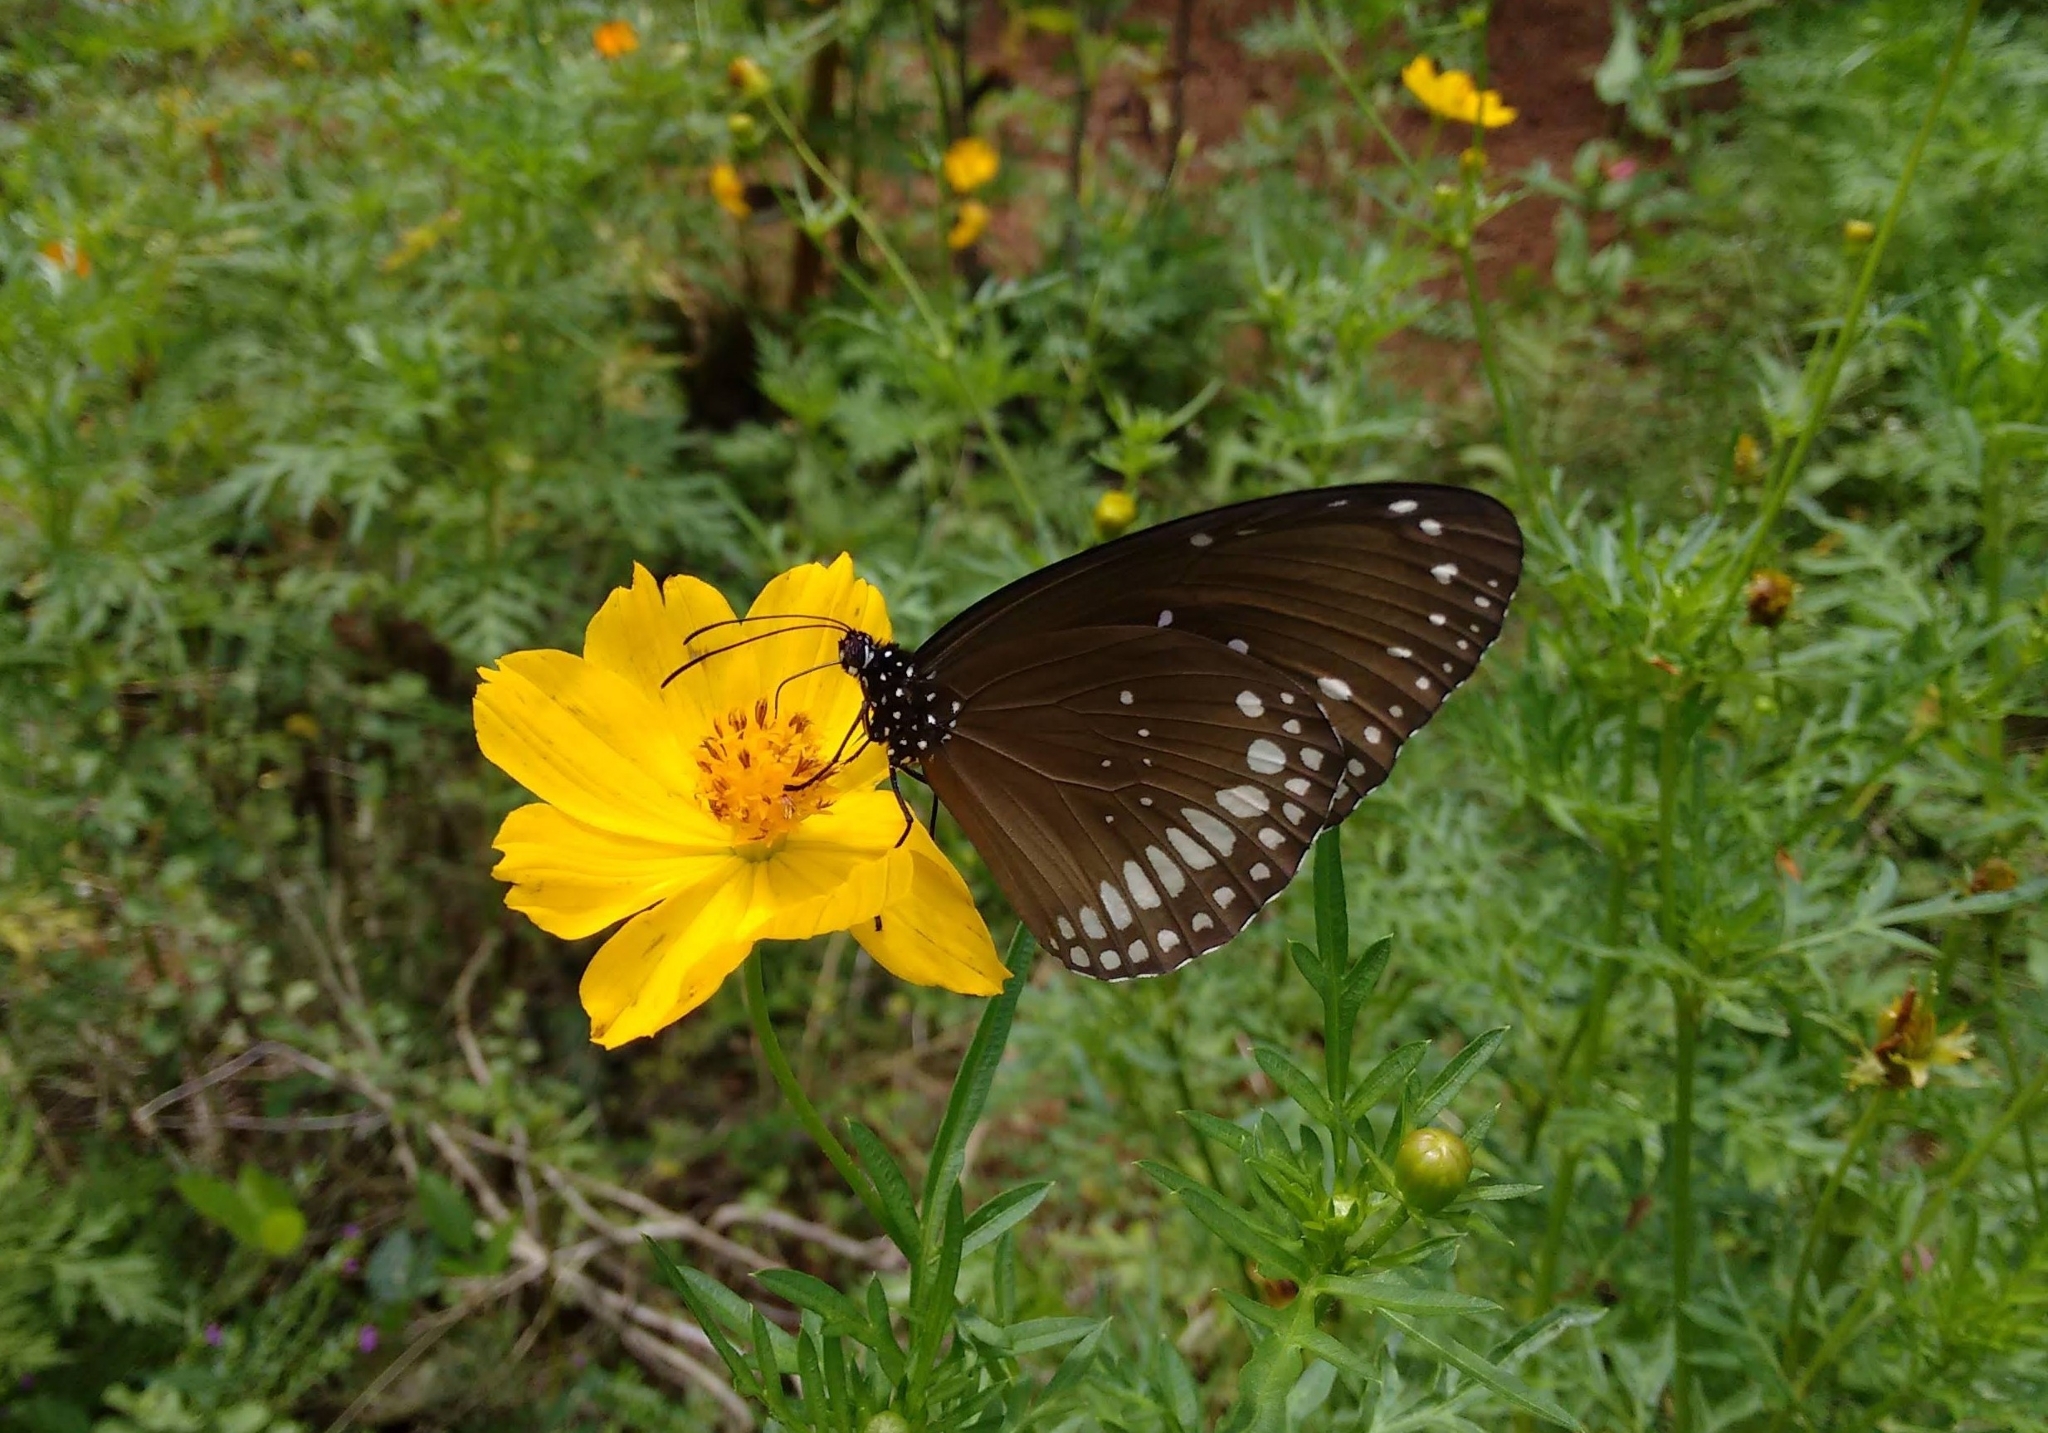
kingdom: Animalia
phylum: Arthropoda
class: Insecta
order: Lepidoptera
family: Nymphalidae
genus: Euploea
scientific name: Euploea core
